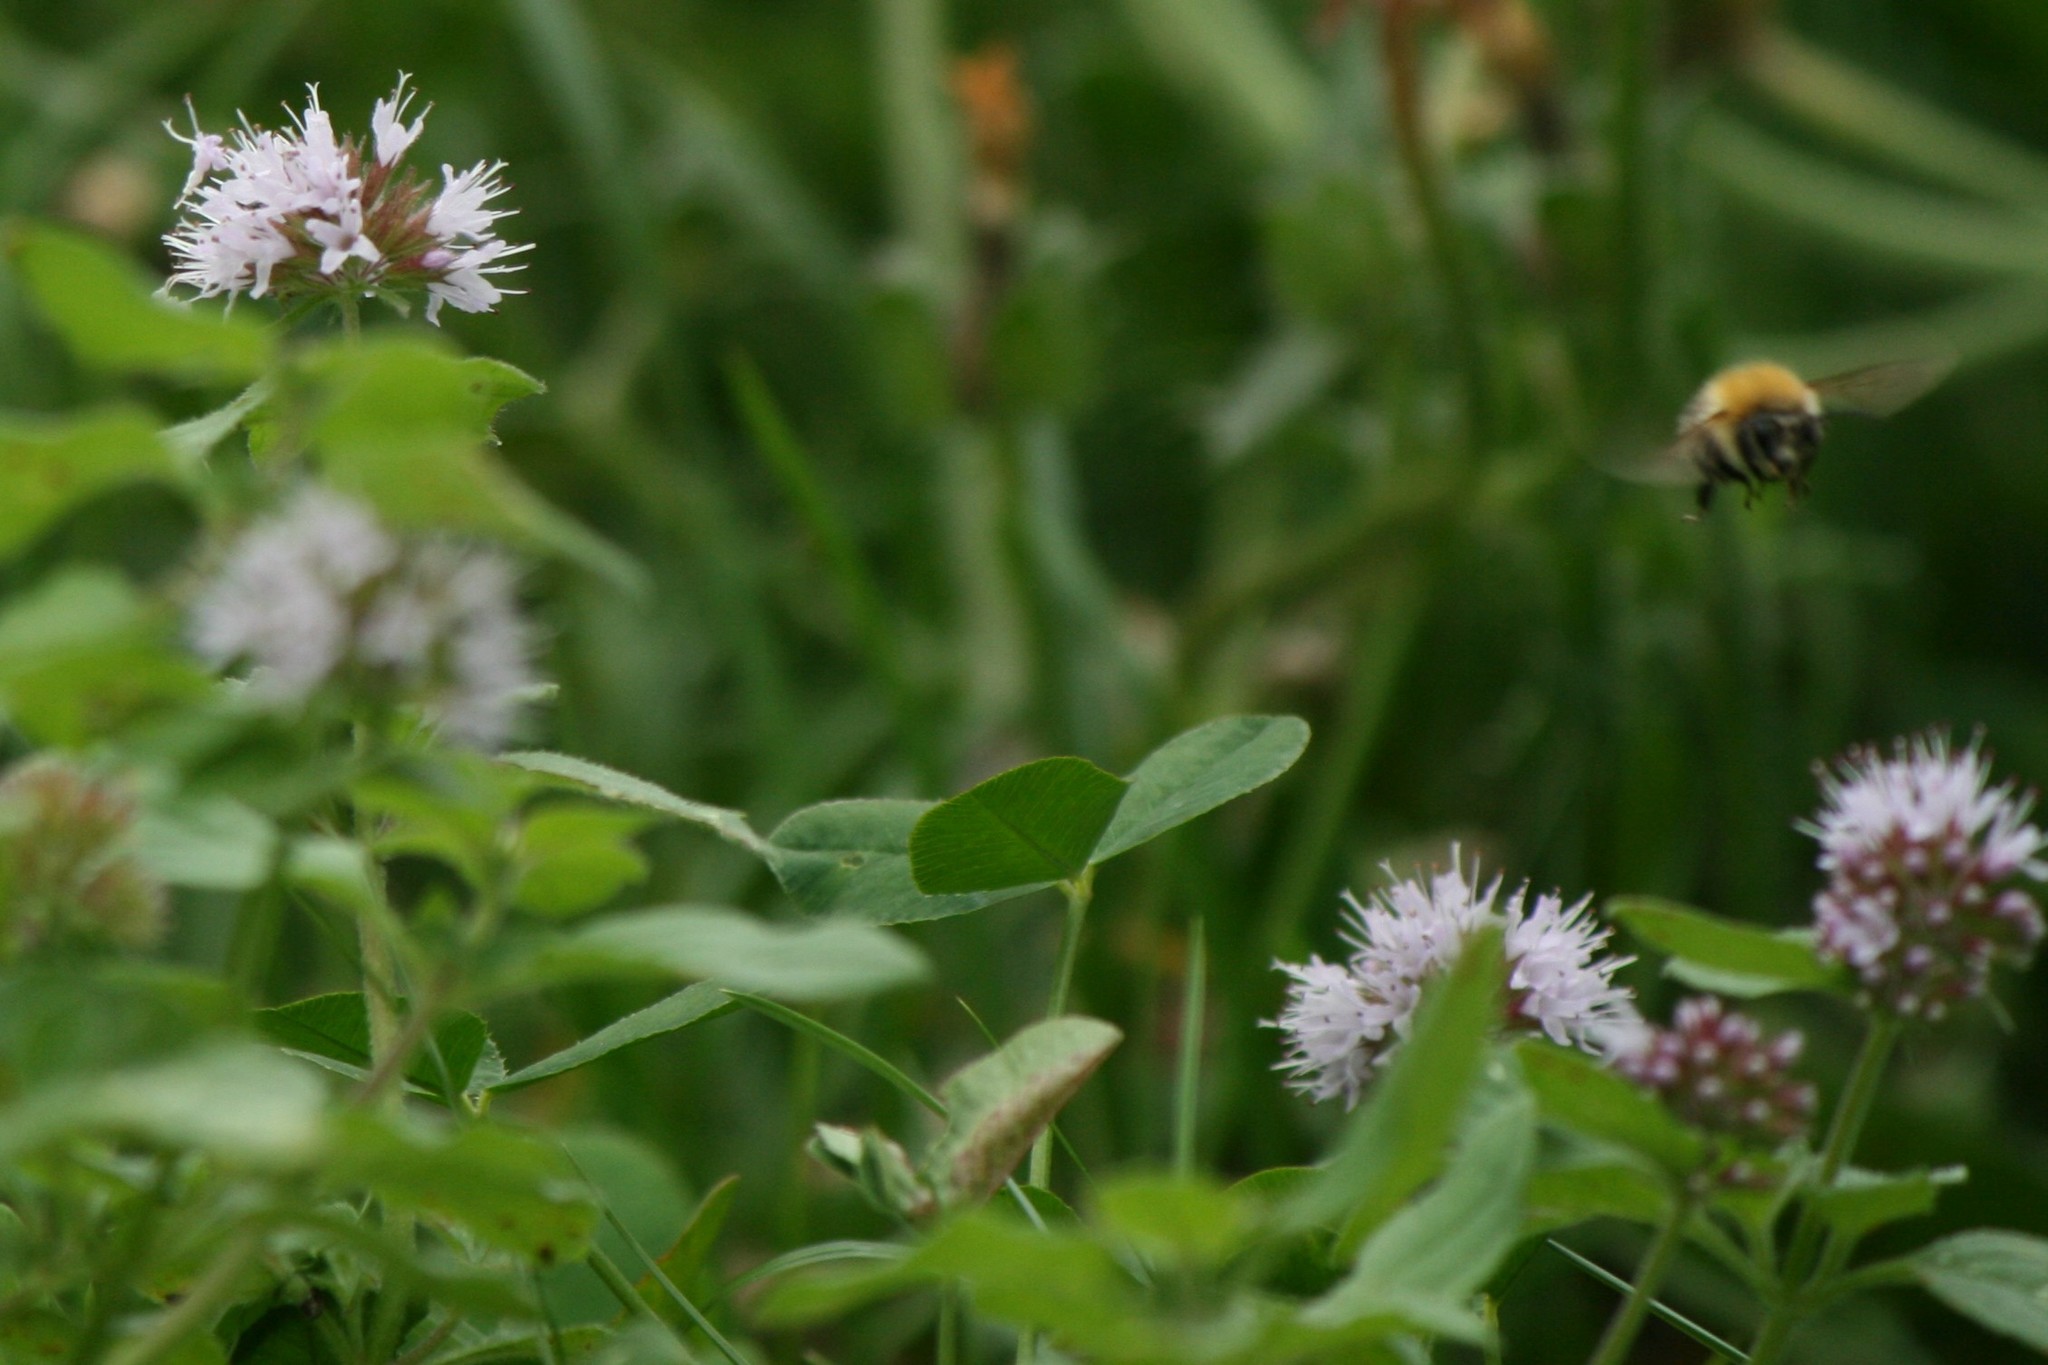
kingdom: Animalia
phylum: Arthropoda
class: Insecta
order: Hymenoptera
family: Apidae
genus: Bombus
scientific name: Bombus pascuorum
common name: Common carder bee
